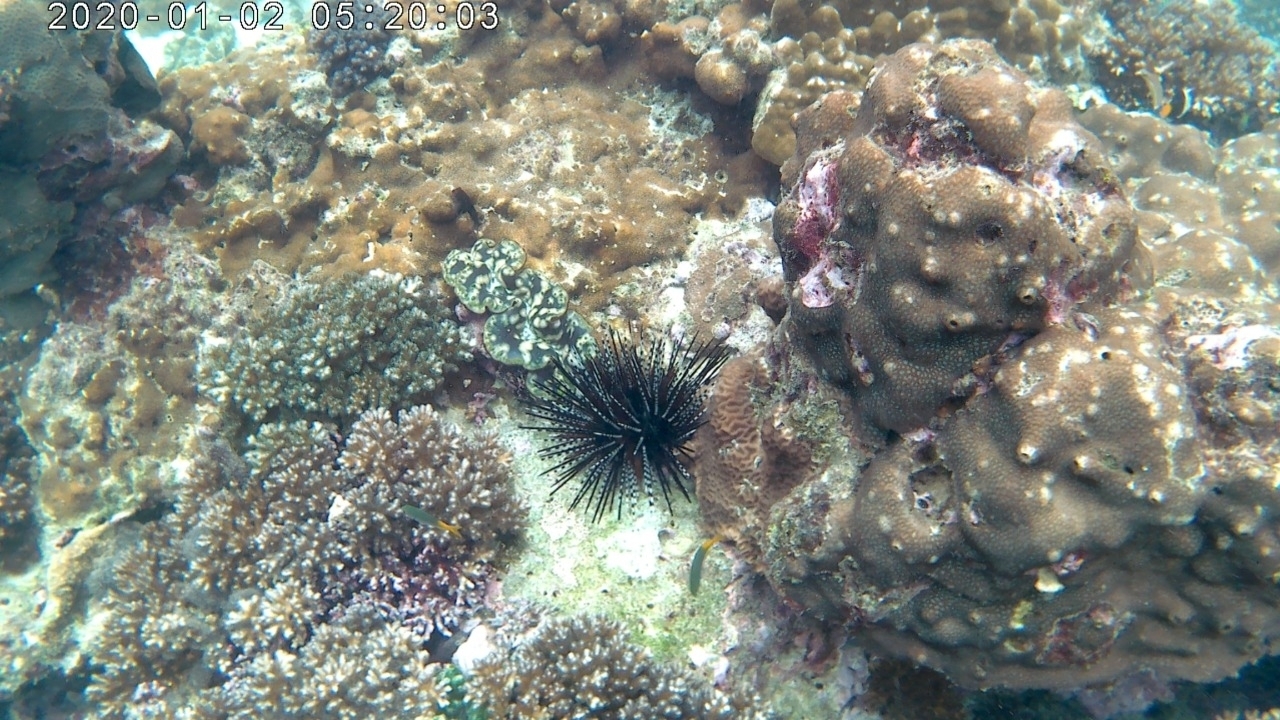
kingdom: Animalia
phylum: Echinodermata
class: Echinoidea
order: Diadematoida
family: Diadematidae
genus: Echinothrix
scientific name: Echinothrix calamaris
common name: Banded sea urchin
